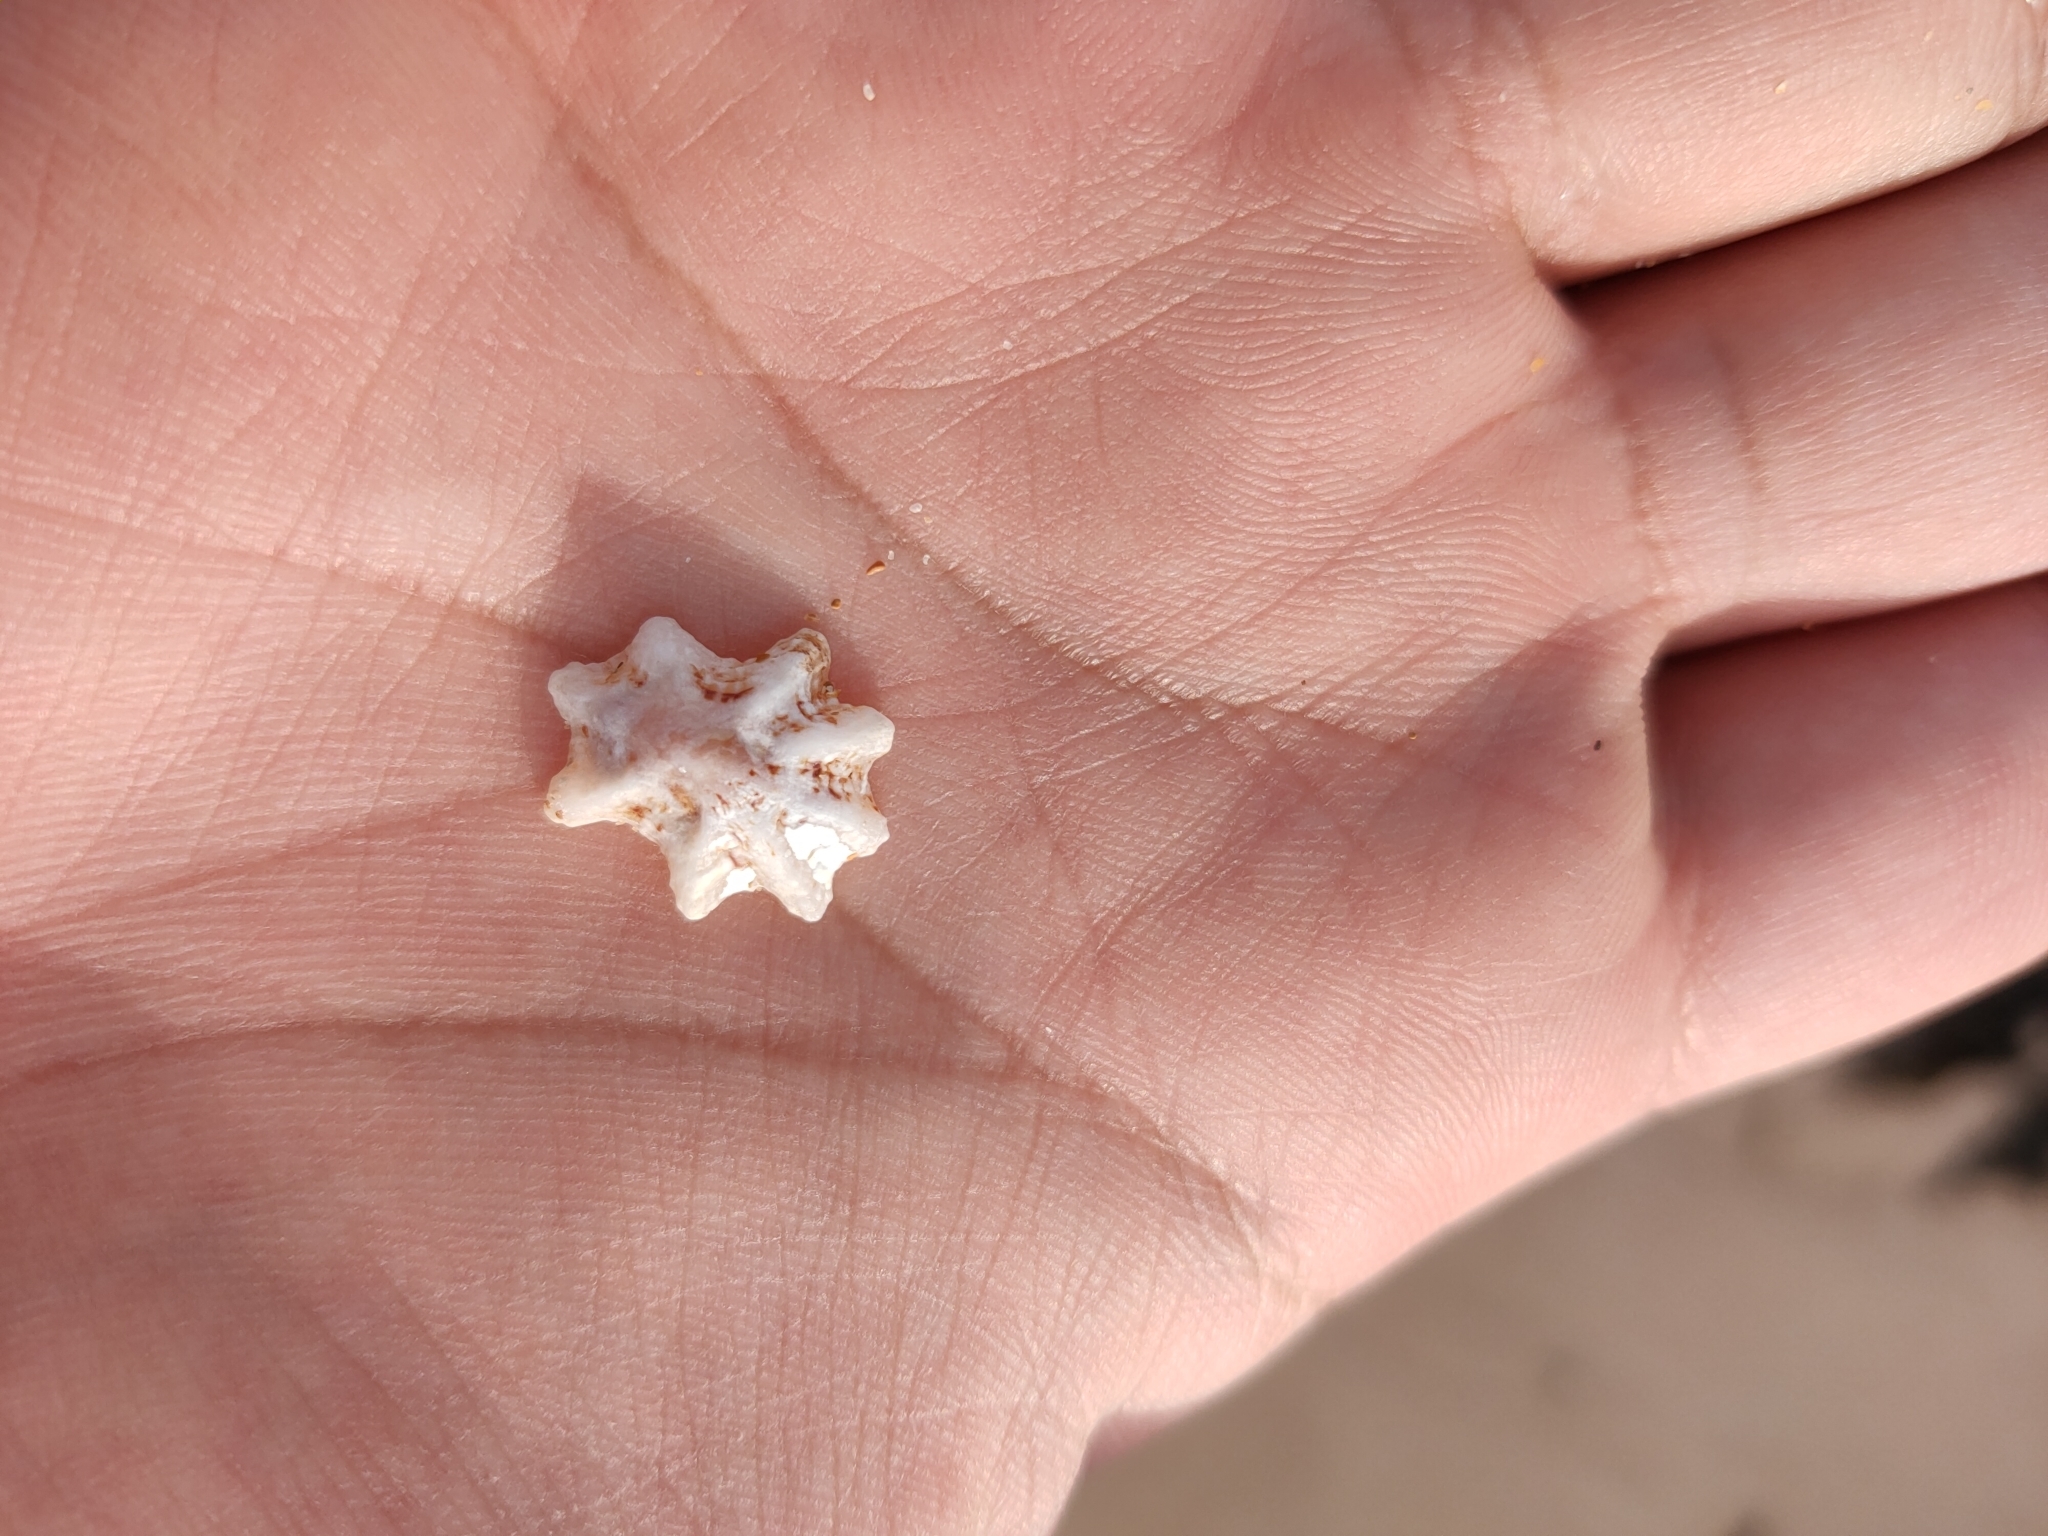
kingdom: Animalia
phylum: Mollusca
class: Gastropoda
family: Patellidae
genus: Scutellastra
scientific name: Scutellastra chapmani
